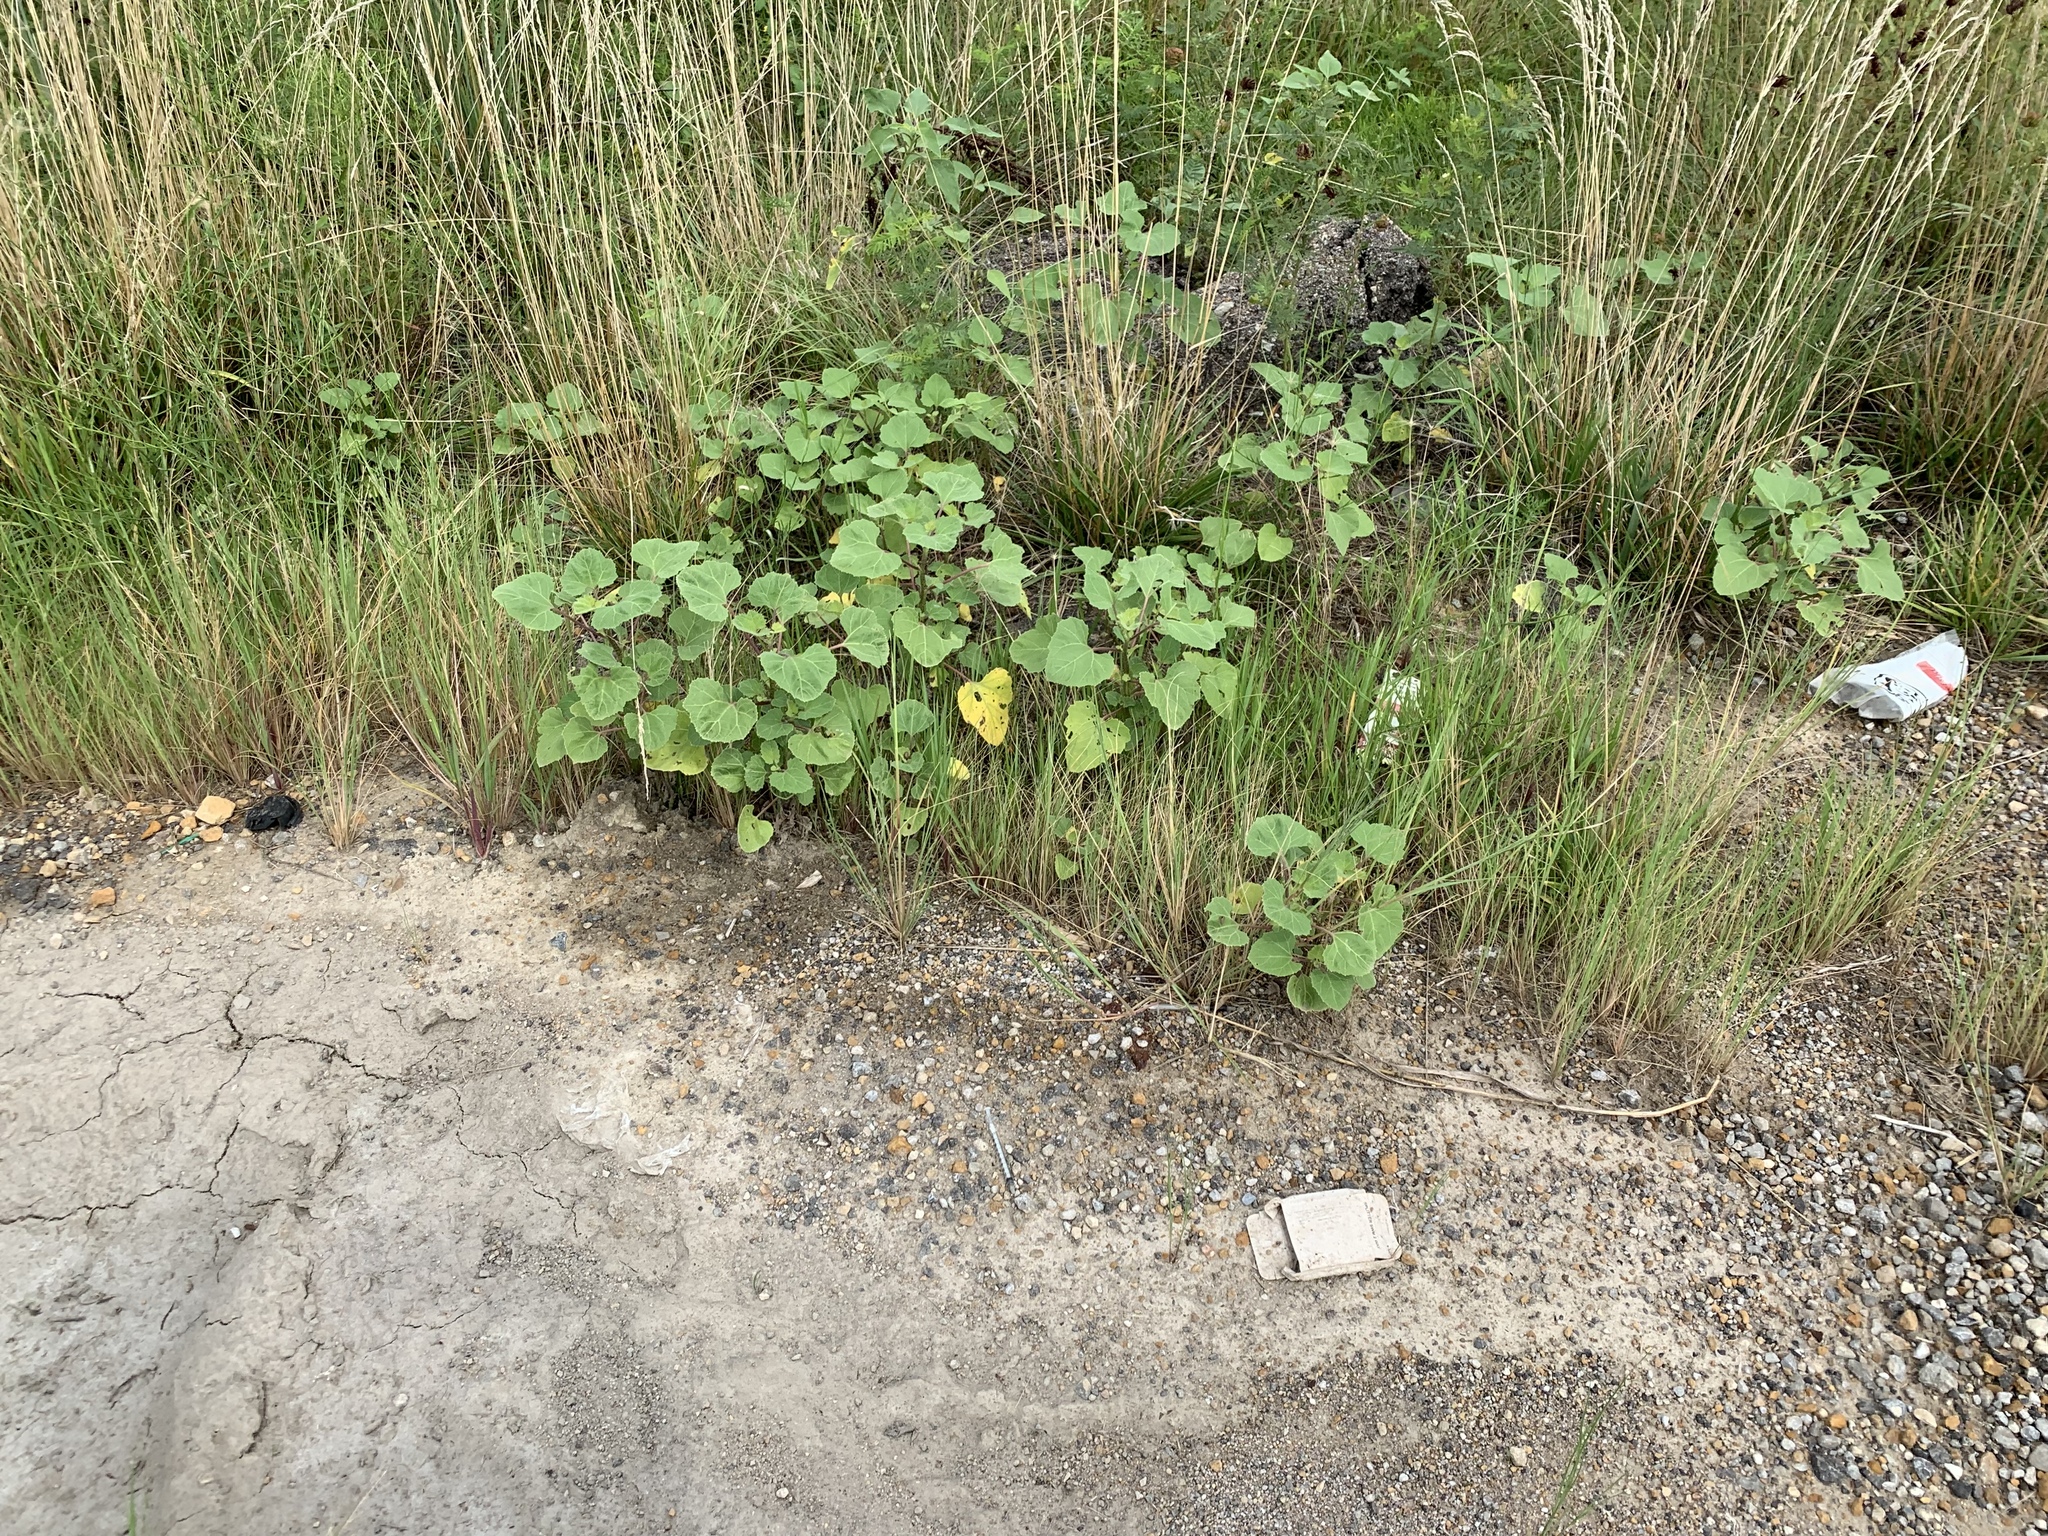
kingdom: Plantae
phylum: Tracheophyta
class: Magnoliopsida
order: Asterales
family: Asteraceae
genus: Xanthium
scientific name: Xanthium strumarium
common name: Rough cocklebur
